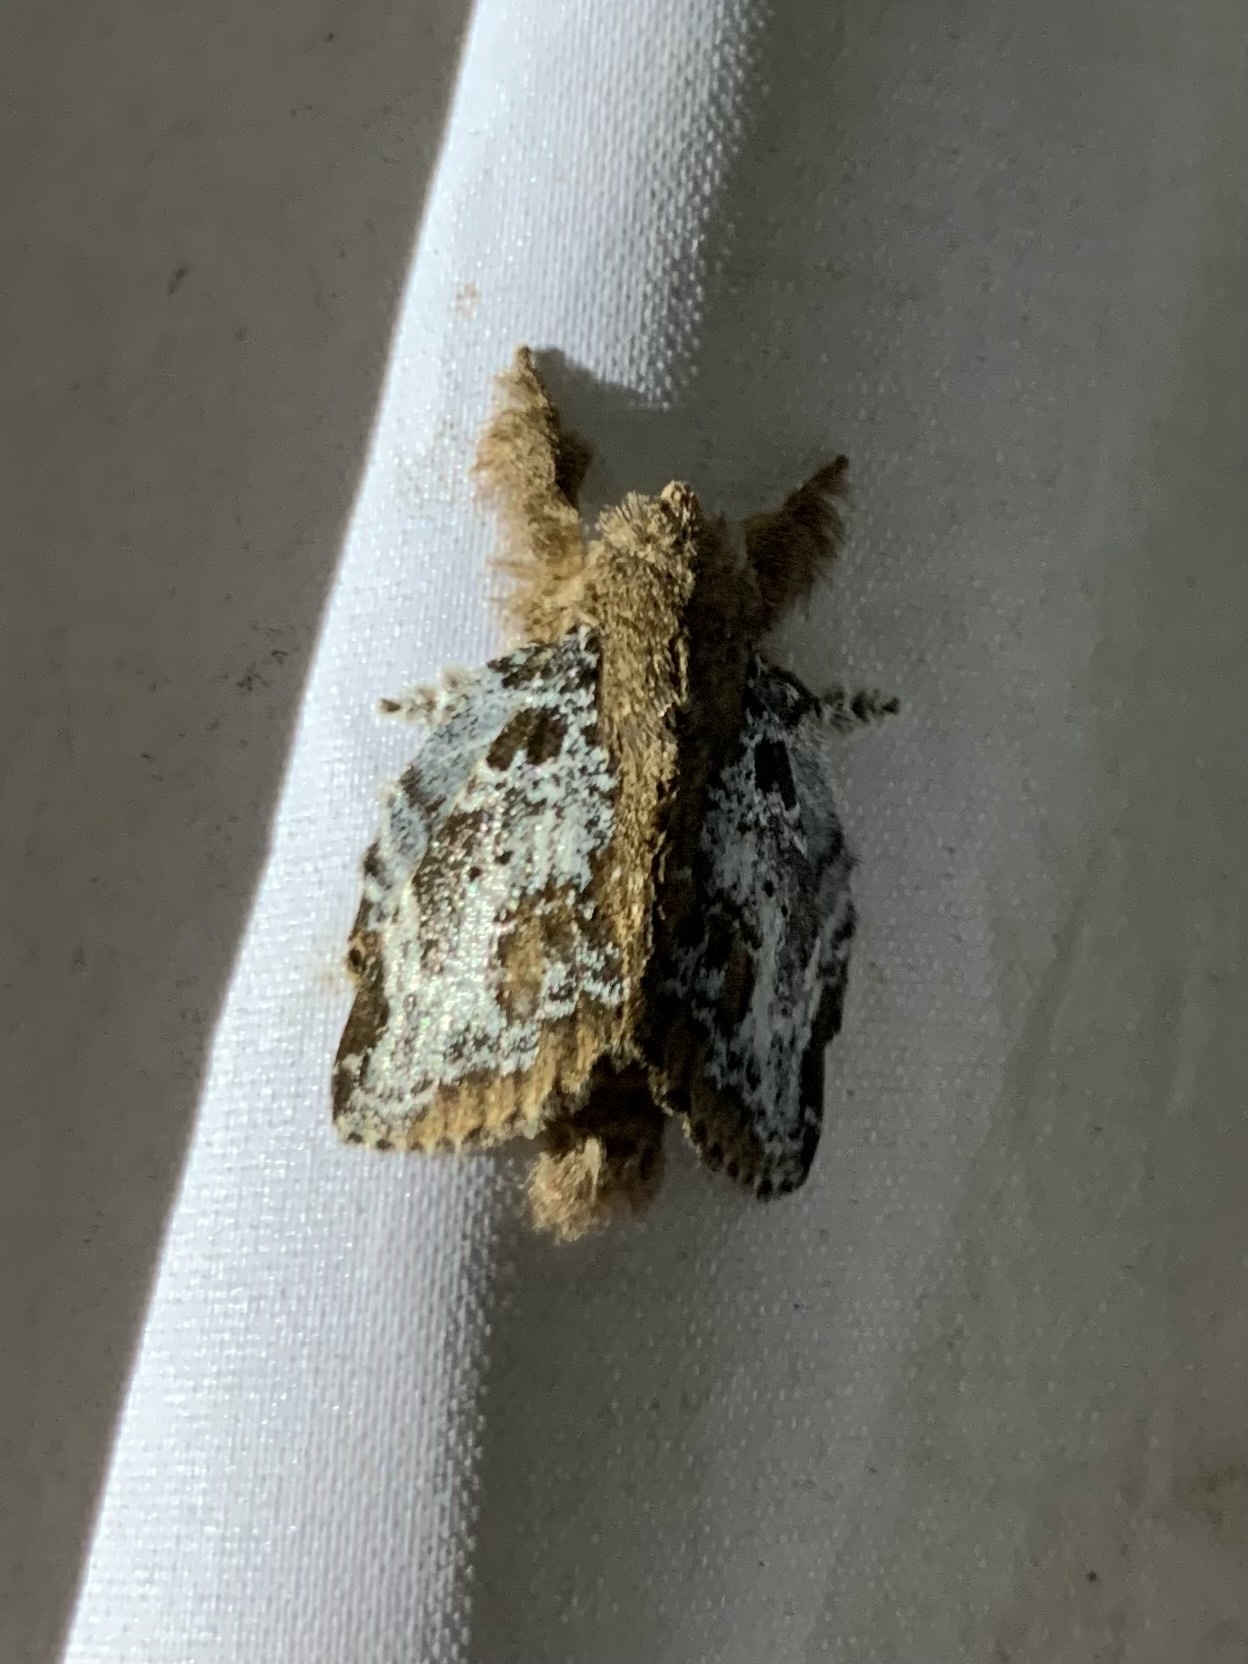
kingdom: Animalia
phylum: Arthropoda
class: Insecta
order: Lepidoptera
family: Lasiocampidae
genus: Euglyphis
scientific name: Euglyphis rundala
